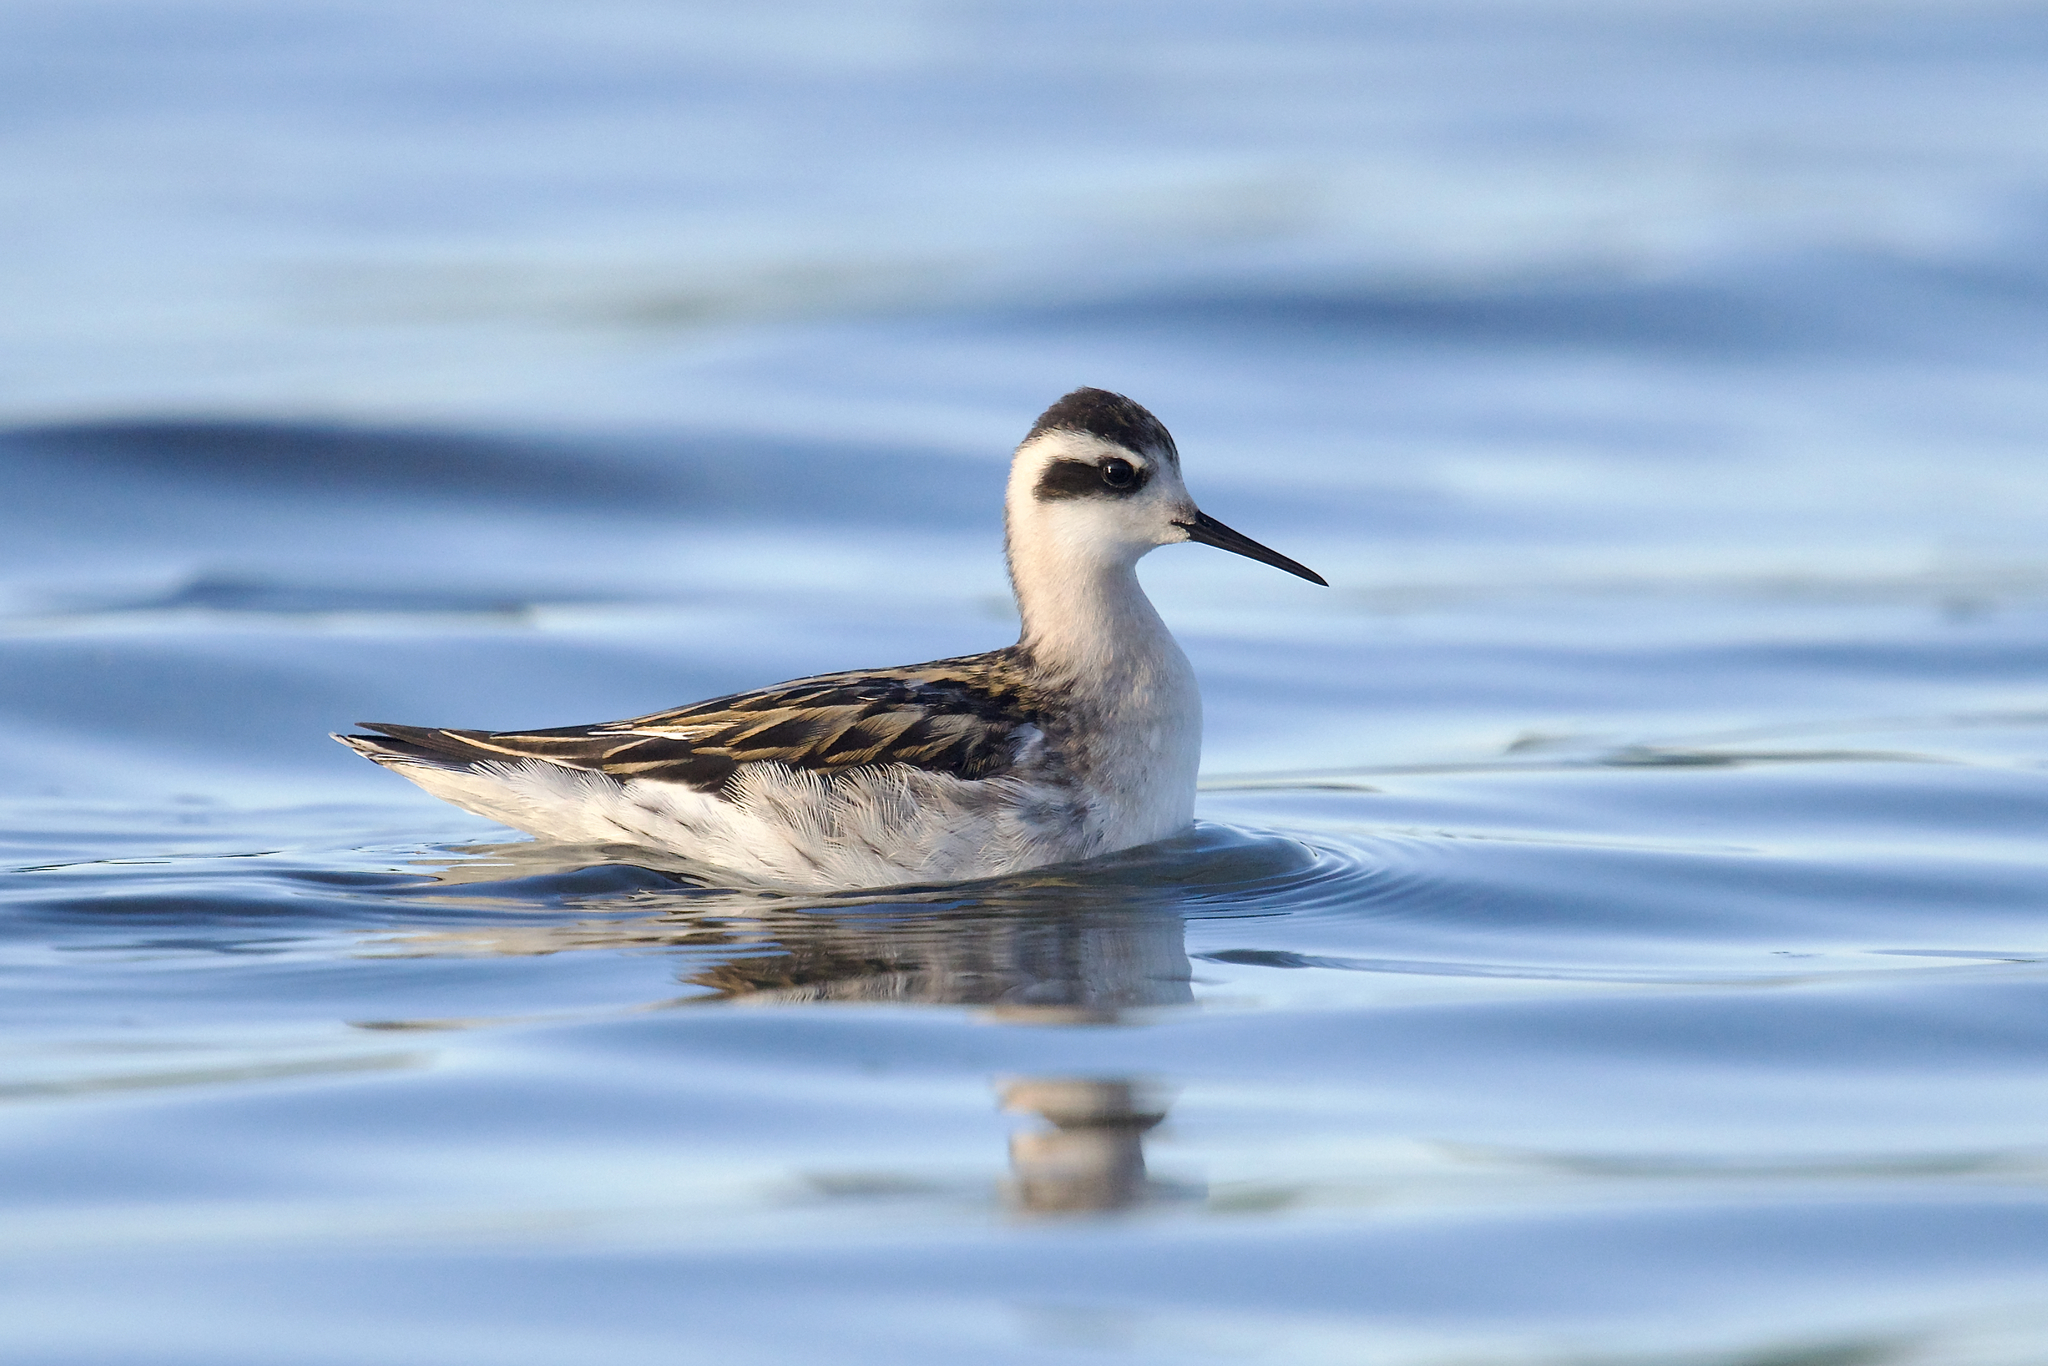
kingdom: Animalia
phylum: Chordata
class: Aves
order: Charadriiformes
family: Scolopacidae
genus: Phalaropus
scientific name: Phalaropus lobatus
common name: Red-necked phalarope
